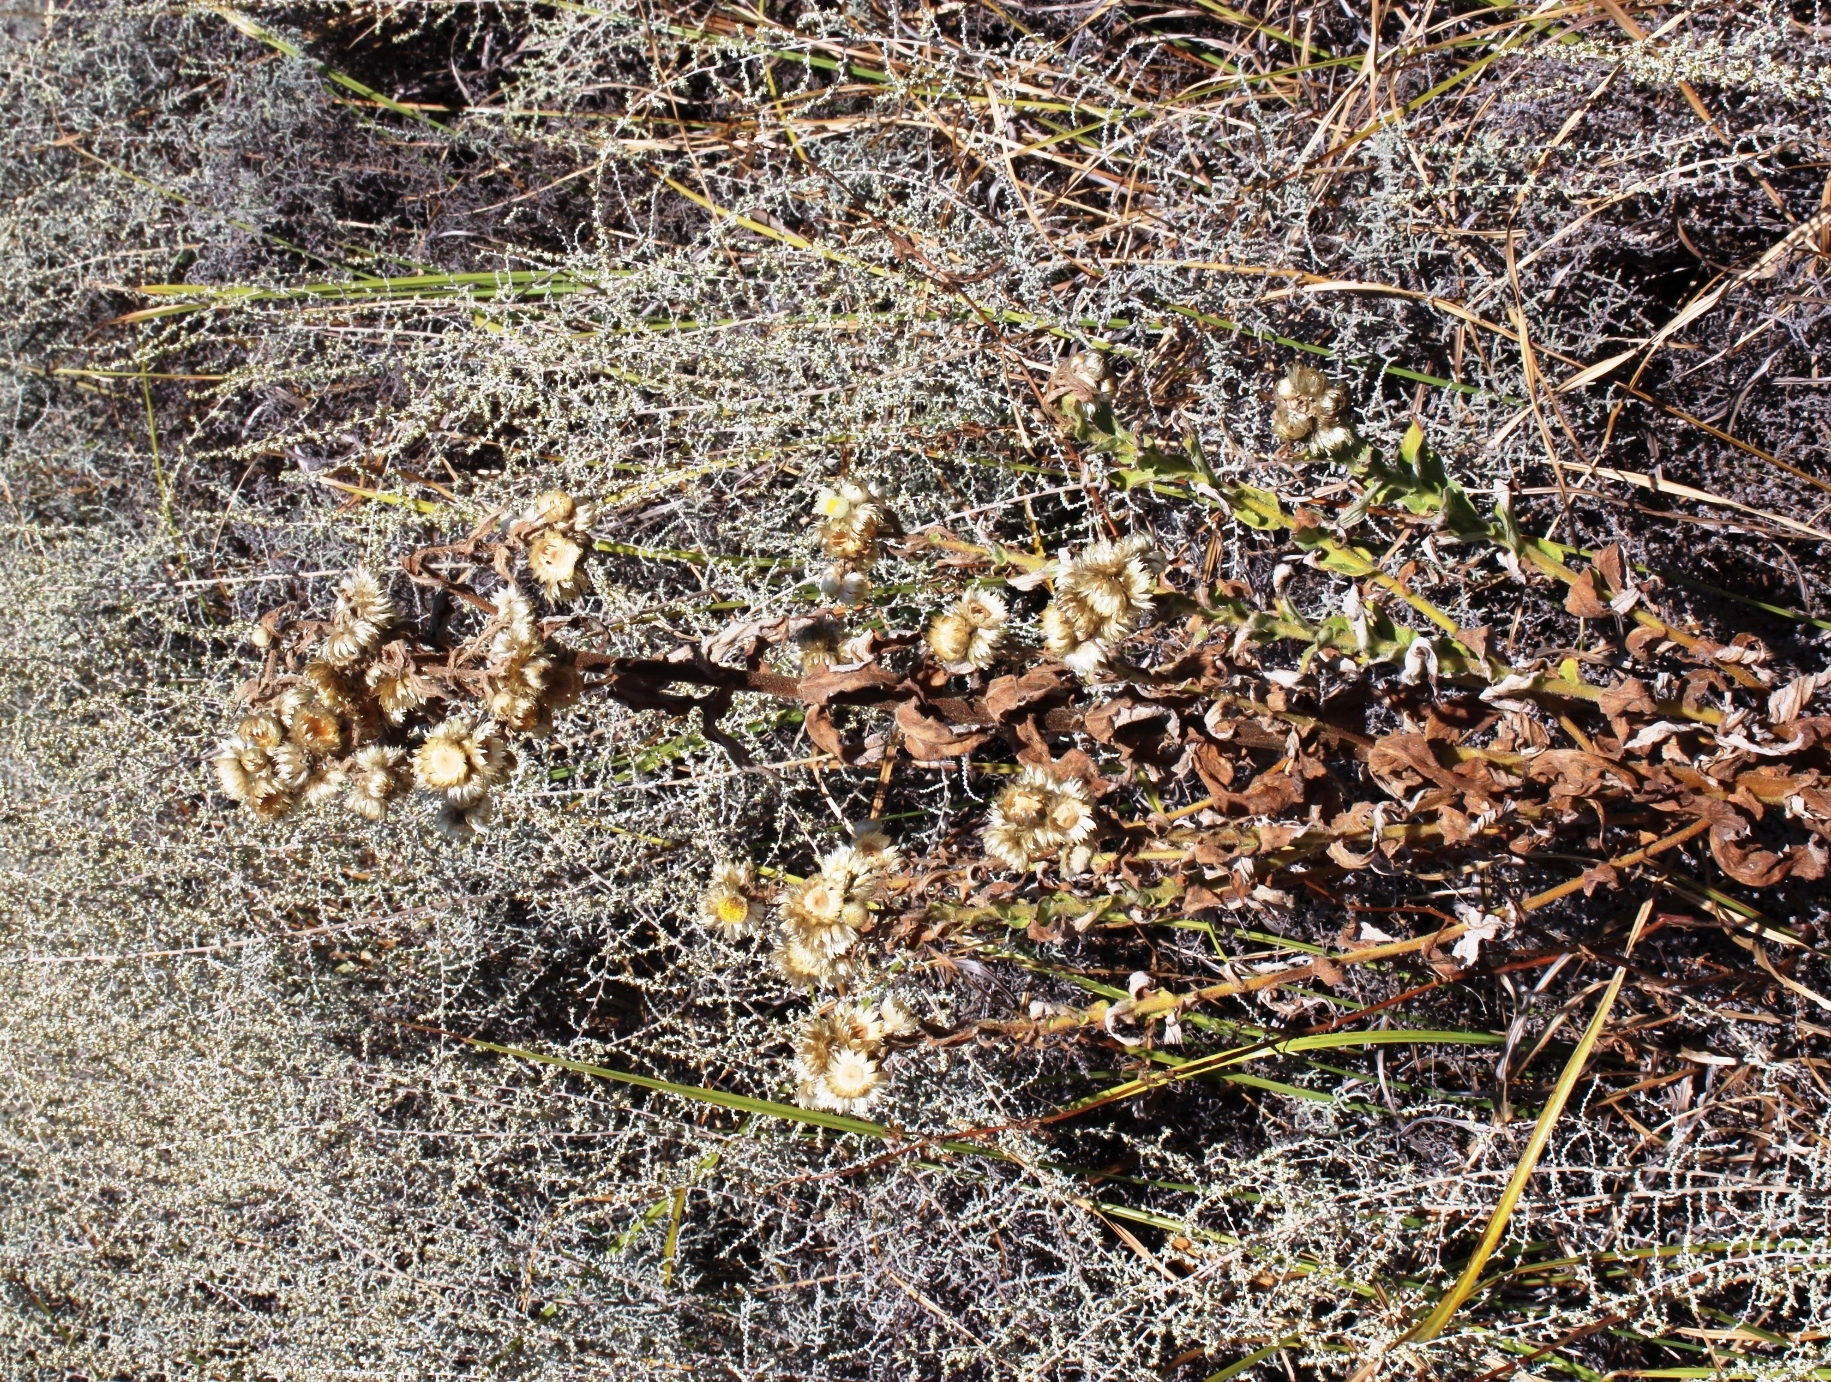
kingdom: Plantae
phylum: Tracheophyta
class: Magnoliopsida
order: Asterales
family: Asteraceae
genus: Helichrysum
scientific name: Helichrysum foetidum
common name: Stinking everlasting
